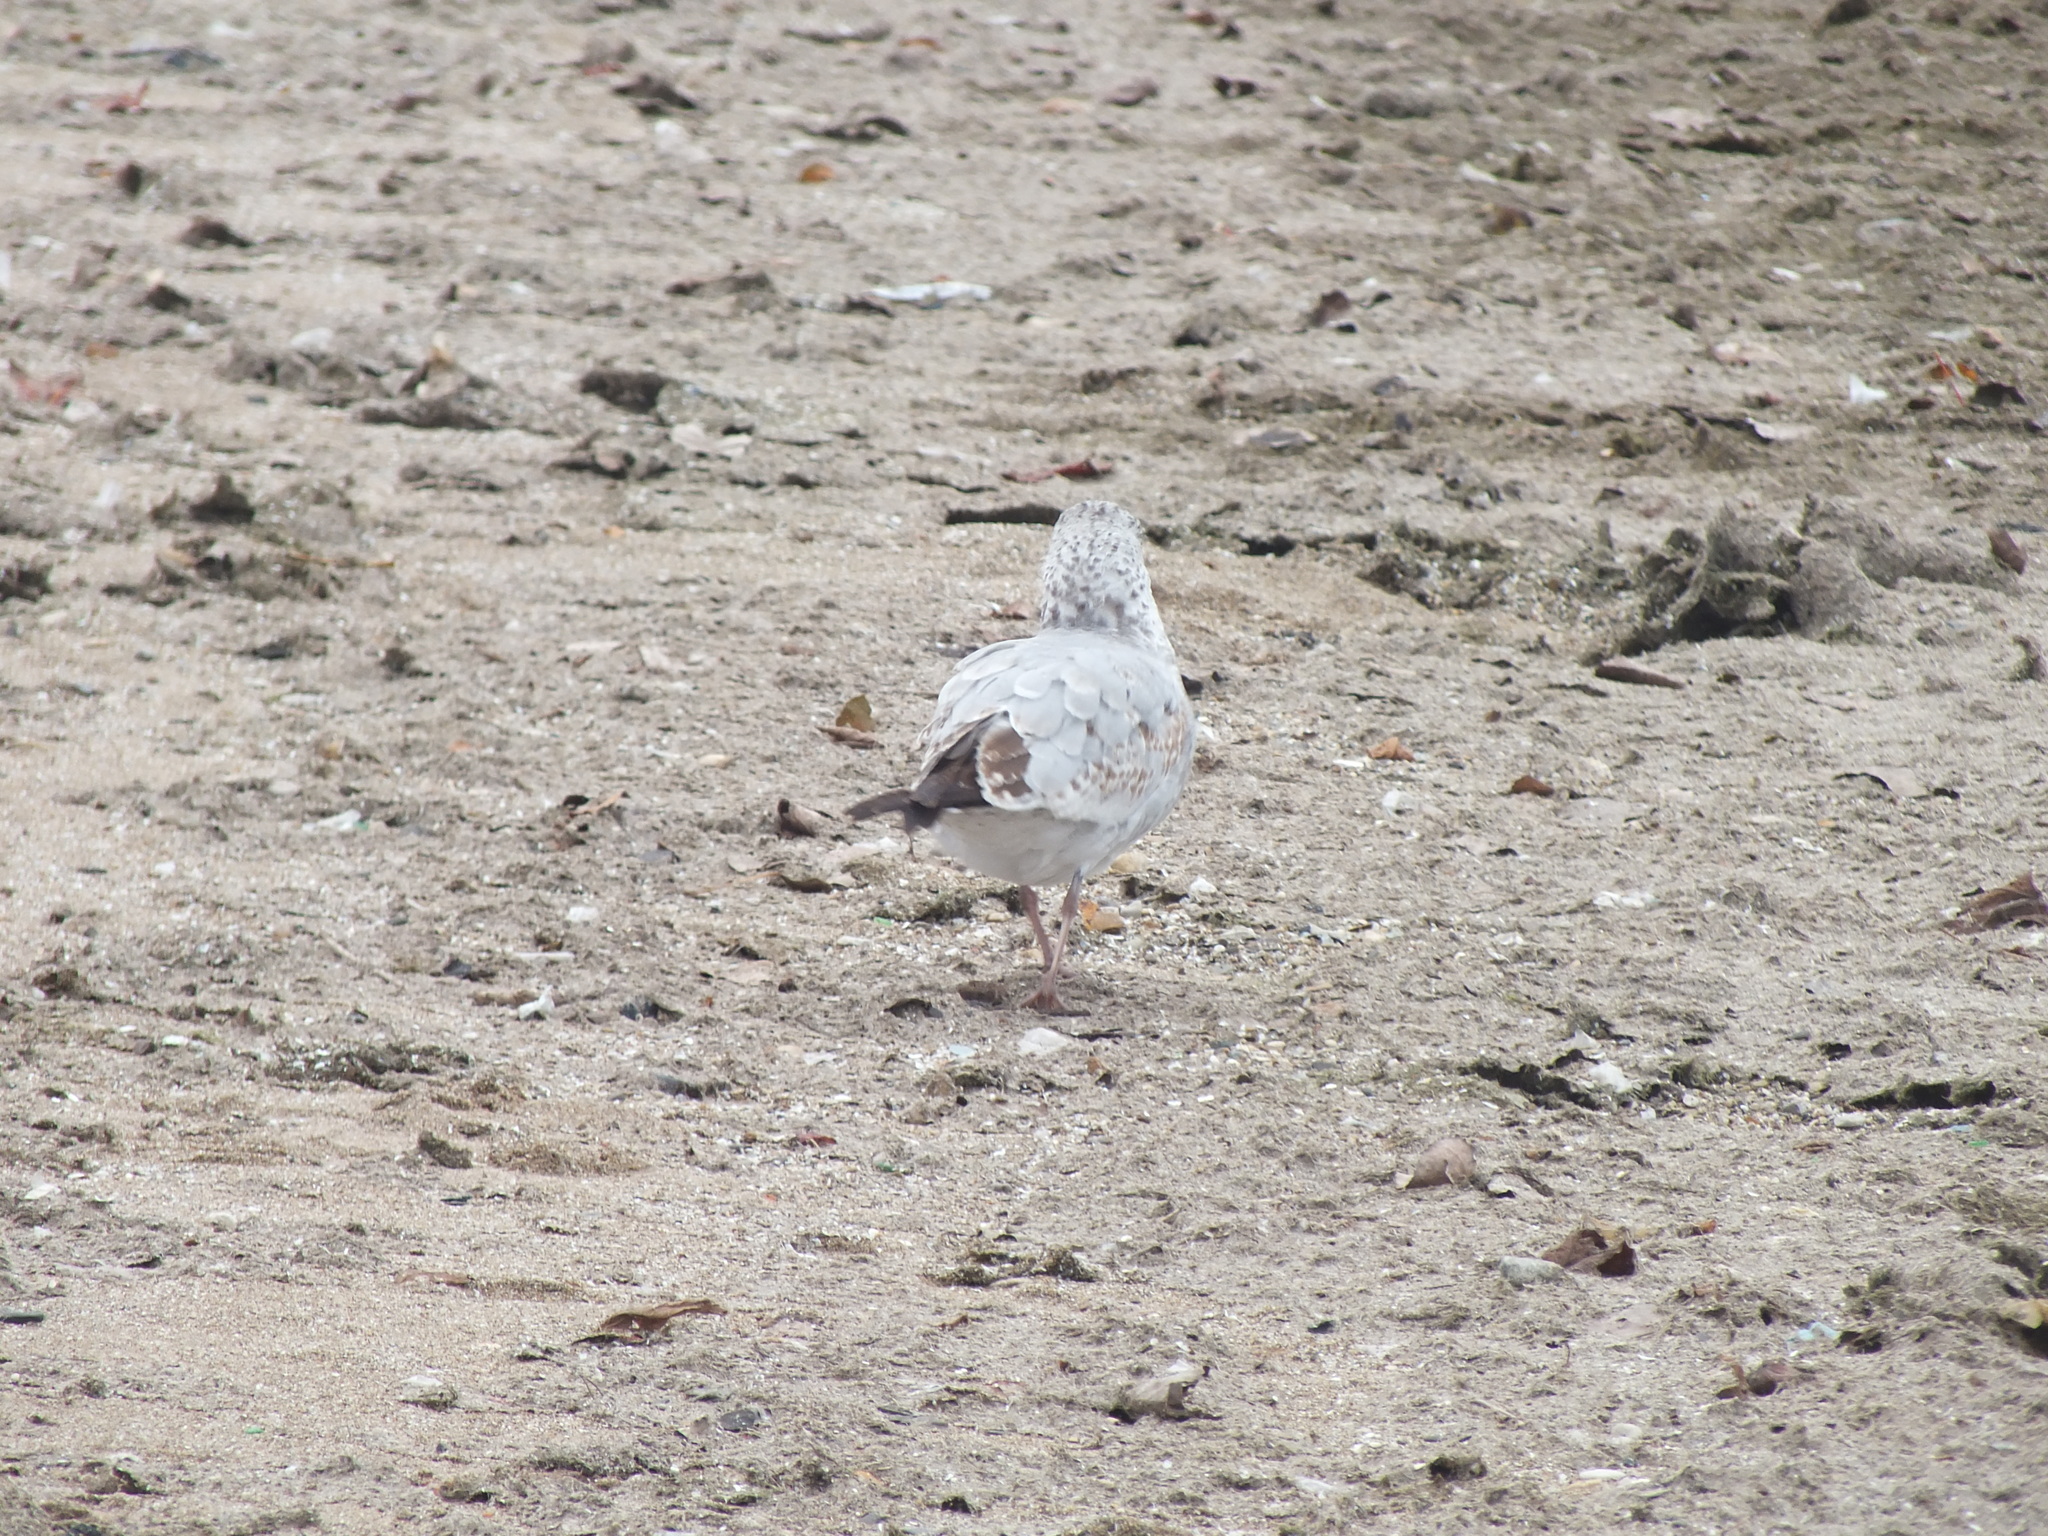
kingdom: Animalia
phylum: Chordata
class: Aves
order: Charadriiformes
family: Laridae
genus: Larus
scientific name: Larus delawarensis
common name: Ring-billed gull
